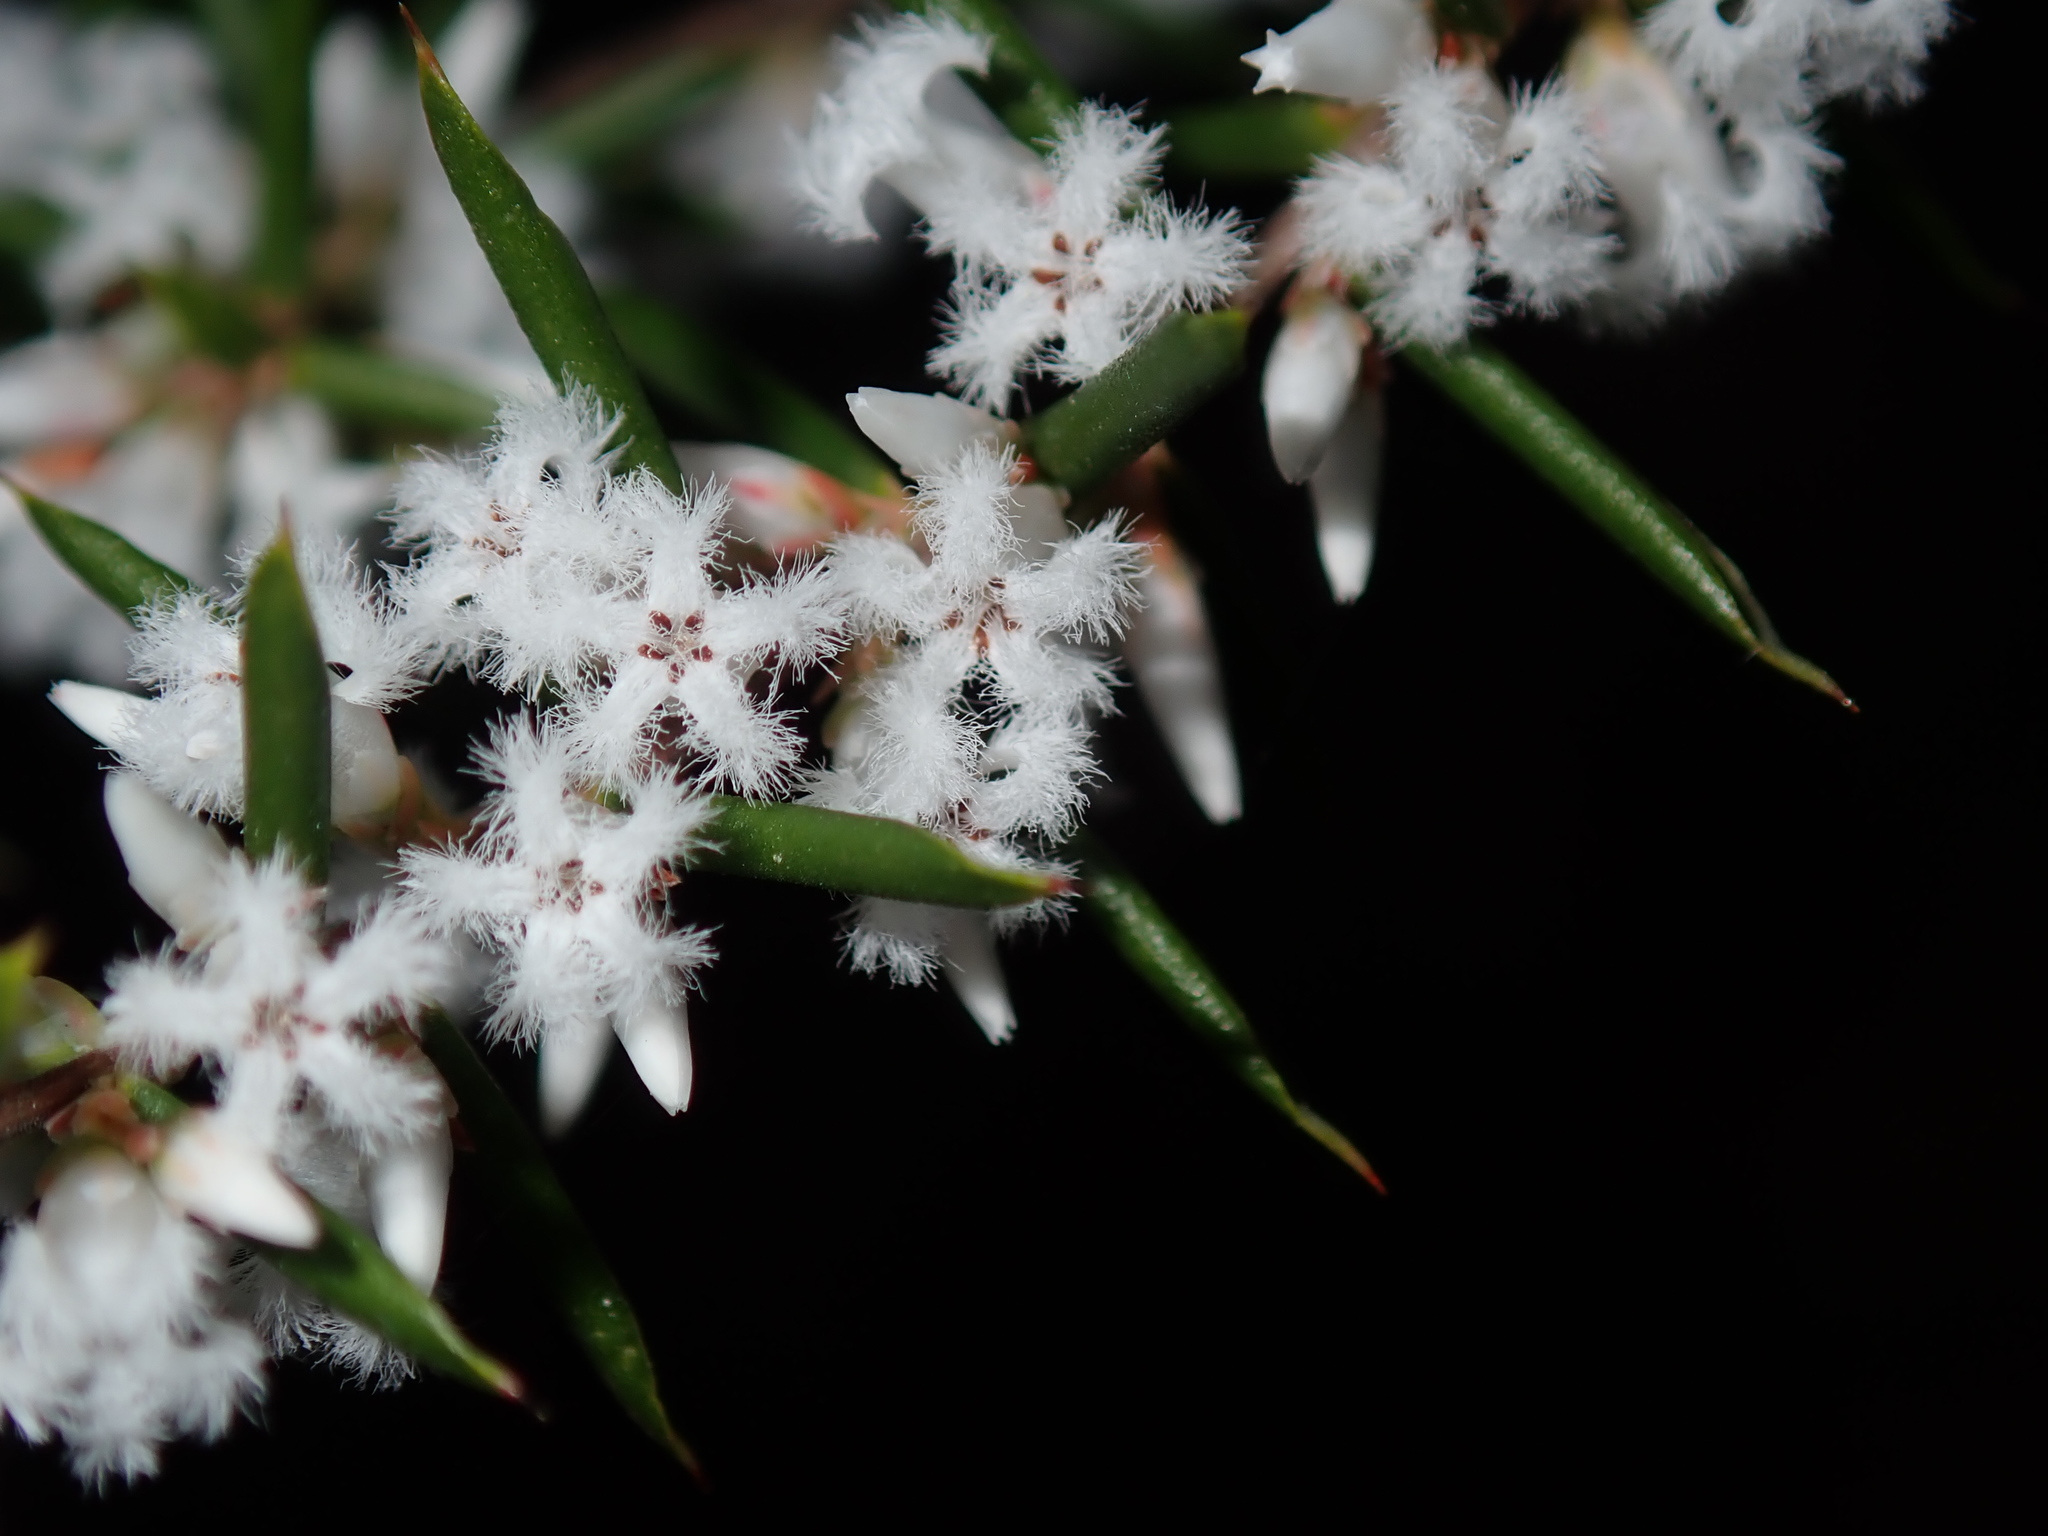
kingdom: Plantae
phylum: Tracheophyta
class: Magnoliopsida
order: Ericales
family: Ericaceae
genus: Styphelia
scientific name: Styphelia ericoides
